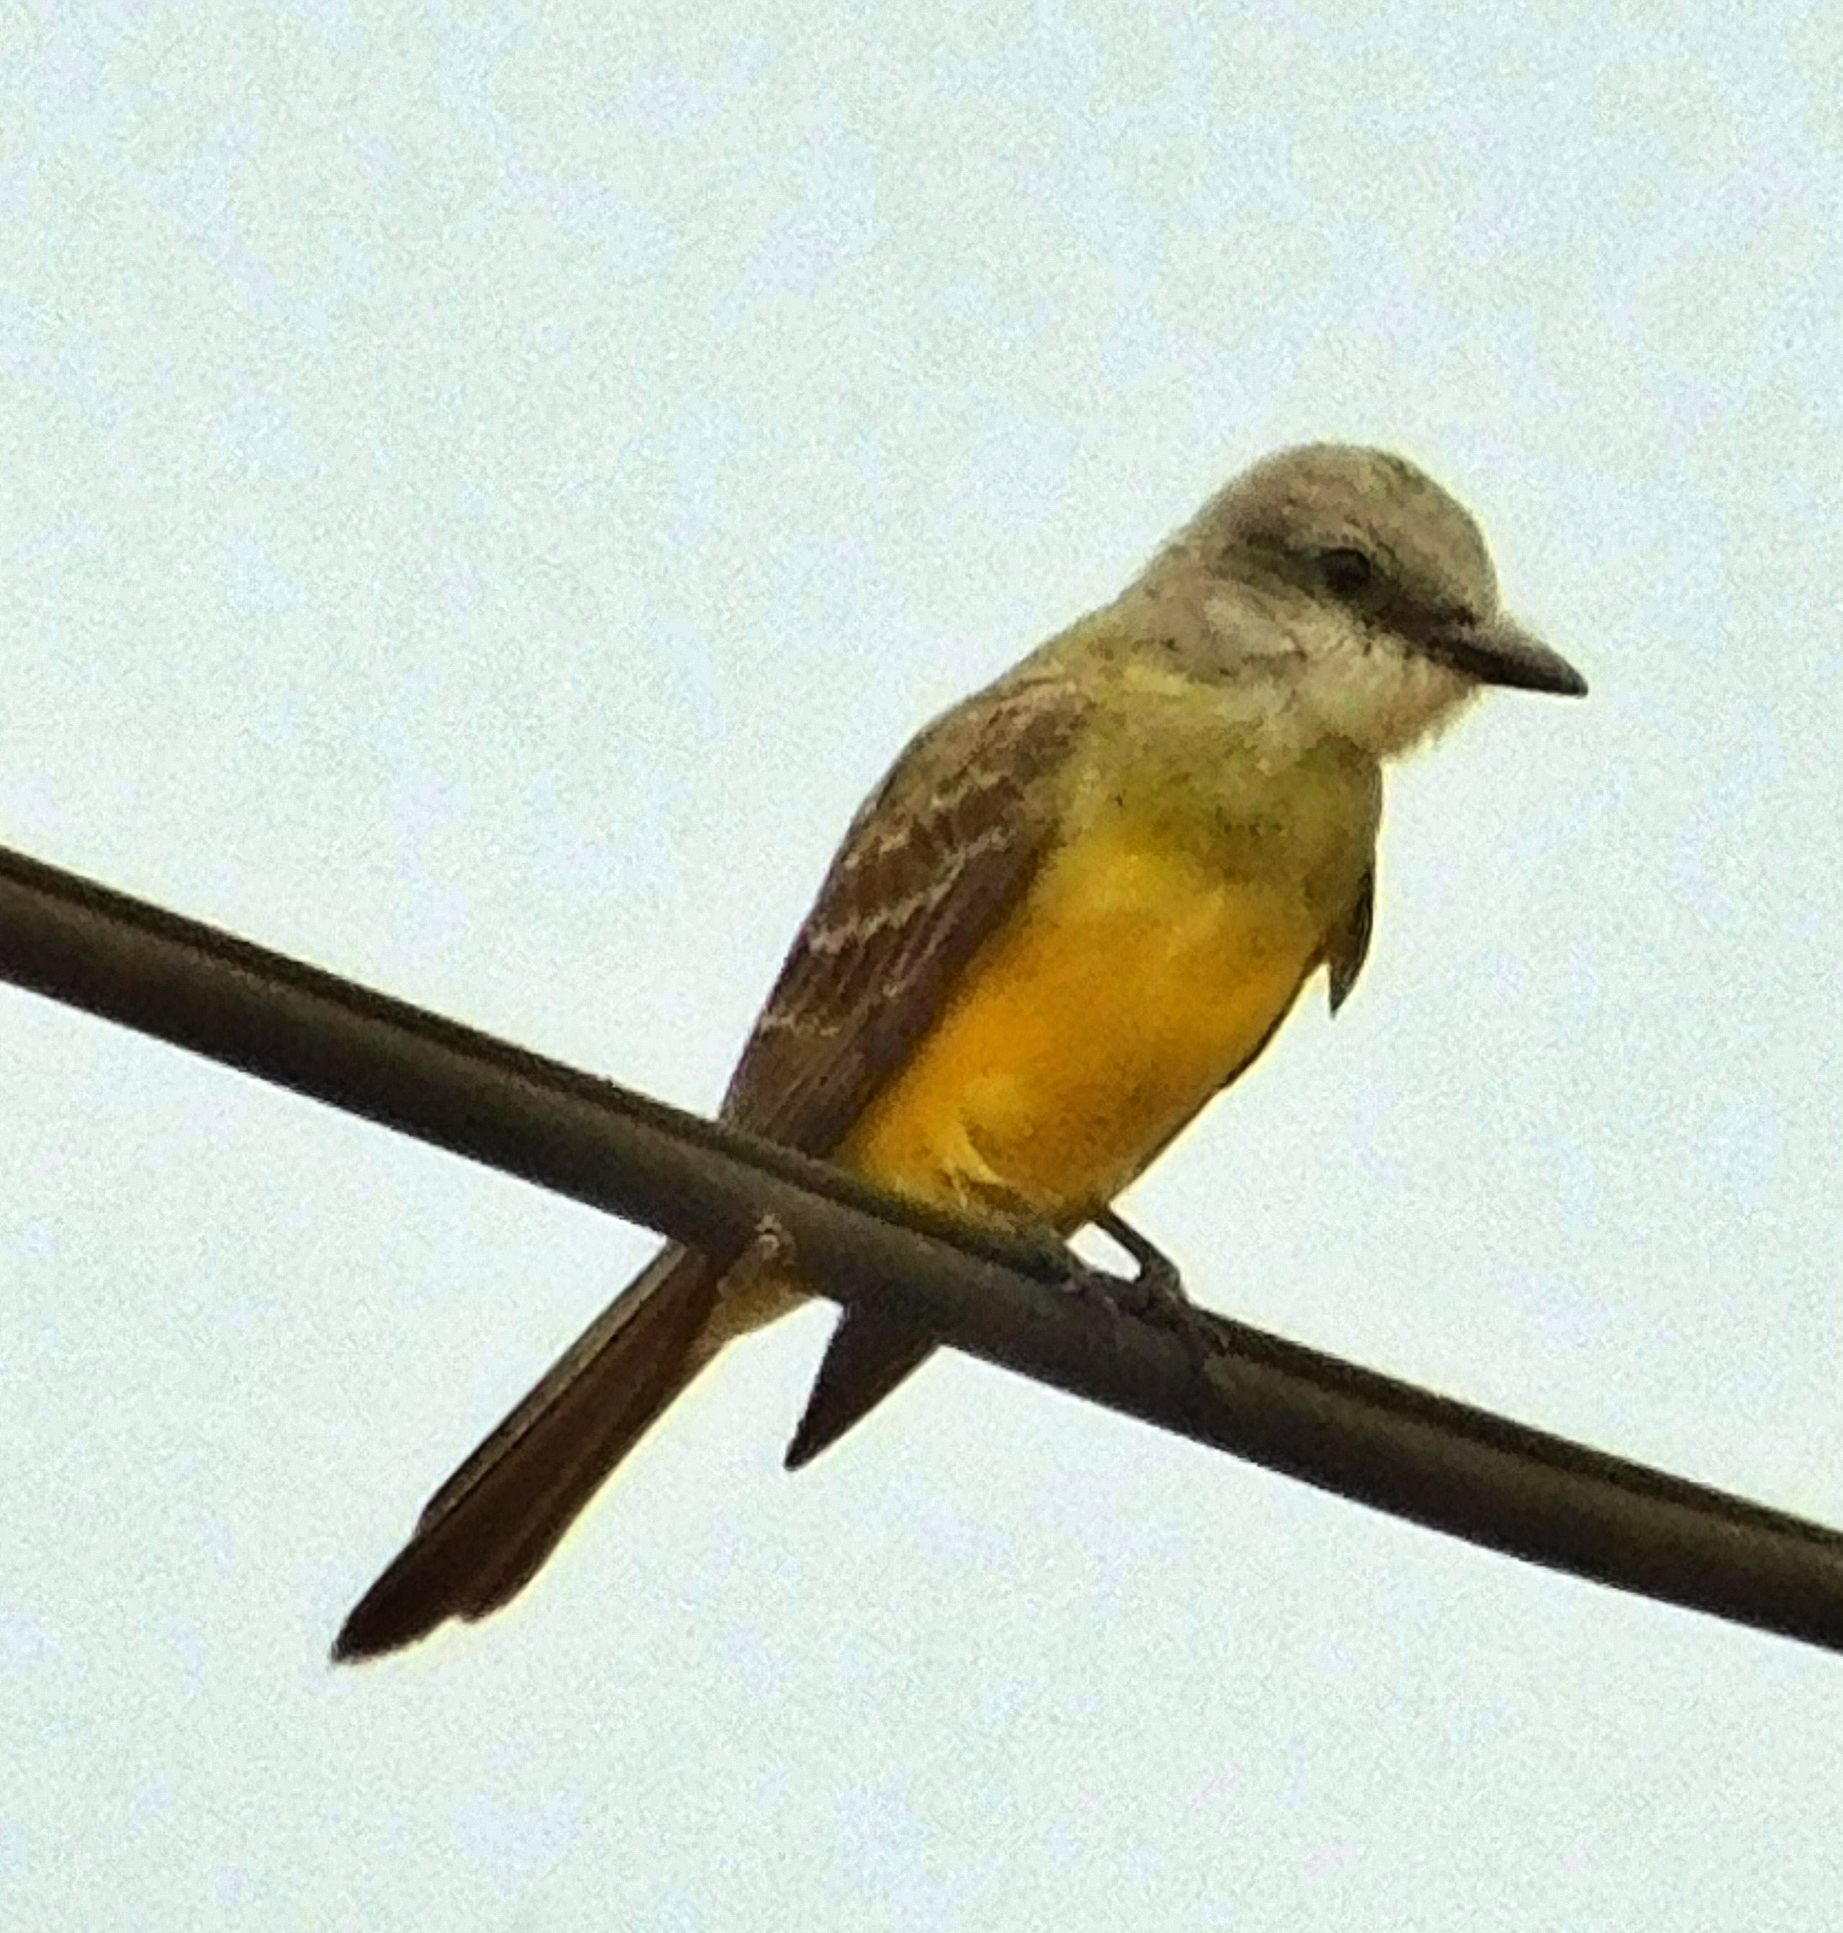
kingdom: Animalia
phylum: Chordata
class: Aves
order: Passeriformes
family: Tyrannidae
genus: Tyrannus
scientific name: Tyrannus melancholicus
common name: Tropical kingbird
